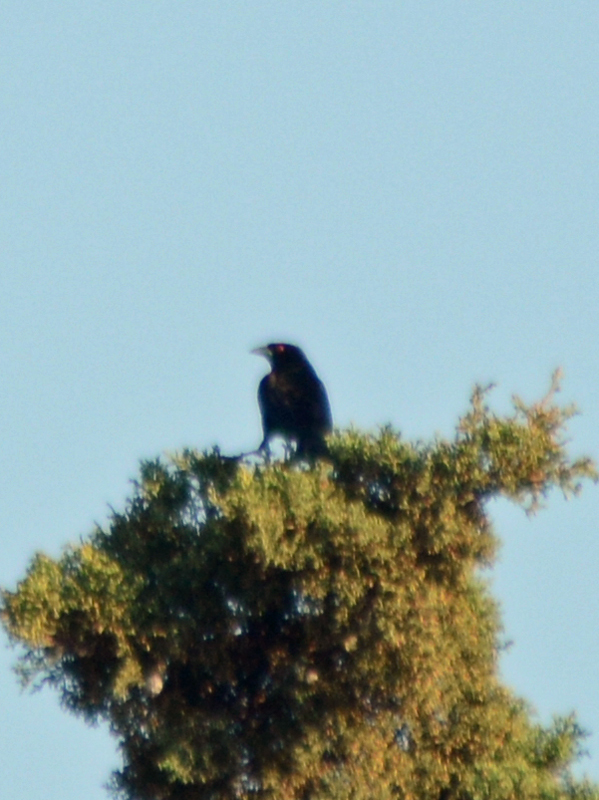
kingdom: Animalia
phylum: Chordata
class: Aves
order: Passeriformes
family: Icteridae
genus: Molothrus
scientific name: Molothrus aeneus
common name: Bronzed cowbird
